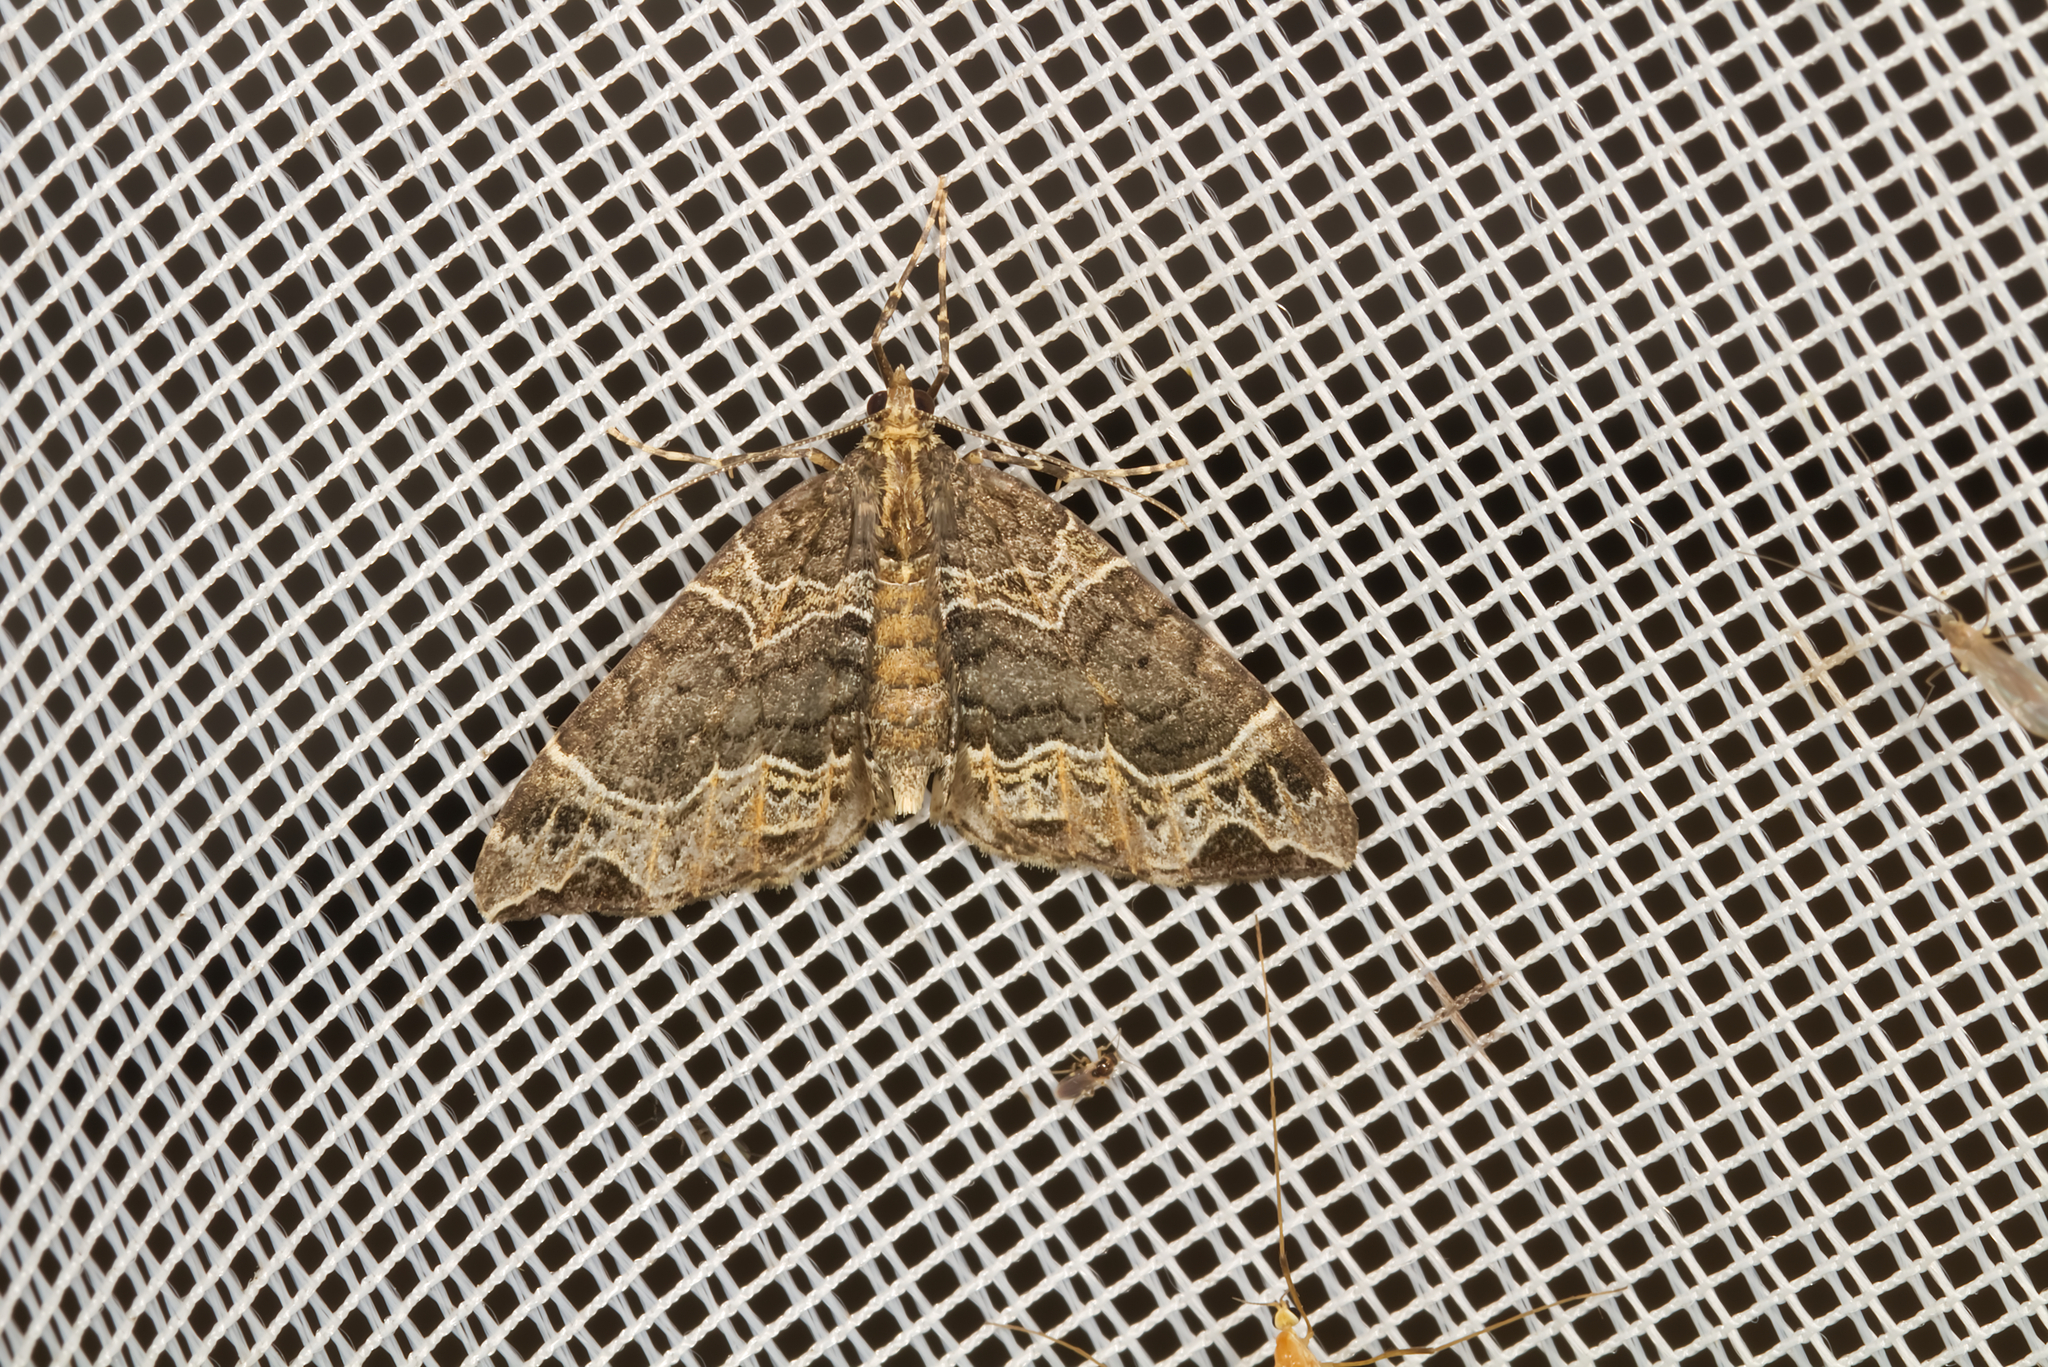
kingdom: Animalia
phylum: Arthropoda
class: Insecta
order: Lepidoptera
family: Geometridae
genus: Ecliptopera
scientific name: Ecliptopera silaceata
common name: Small phoenix
